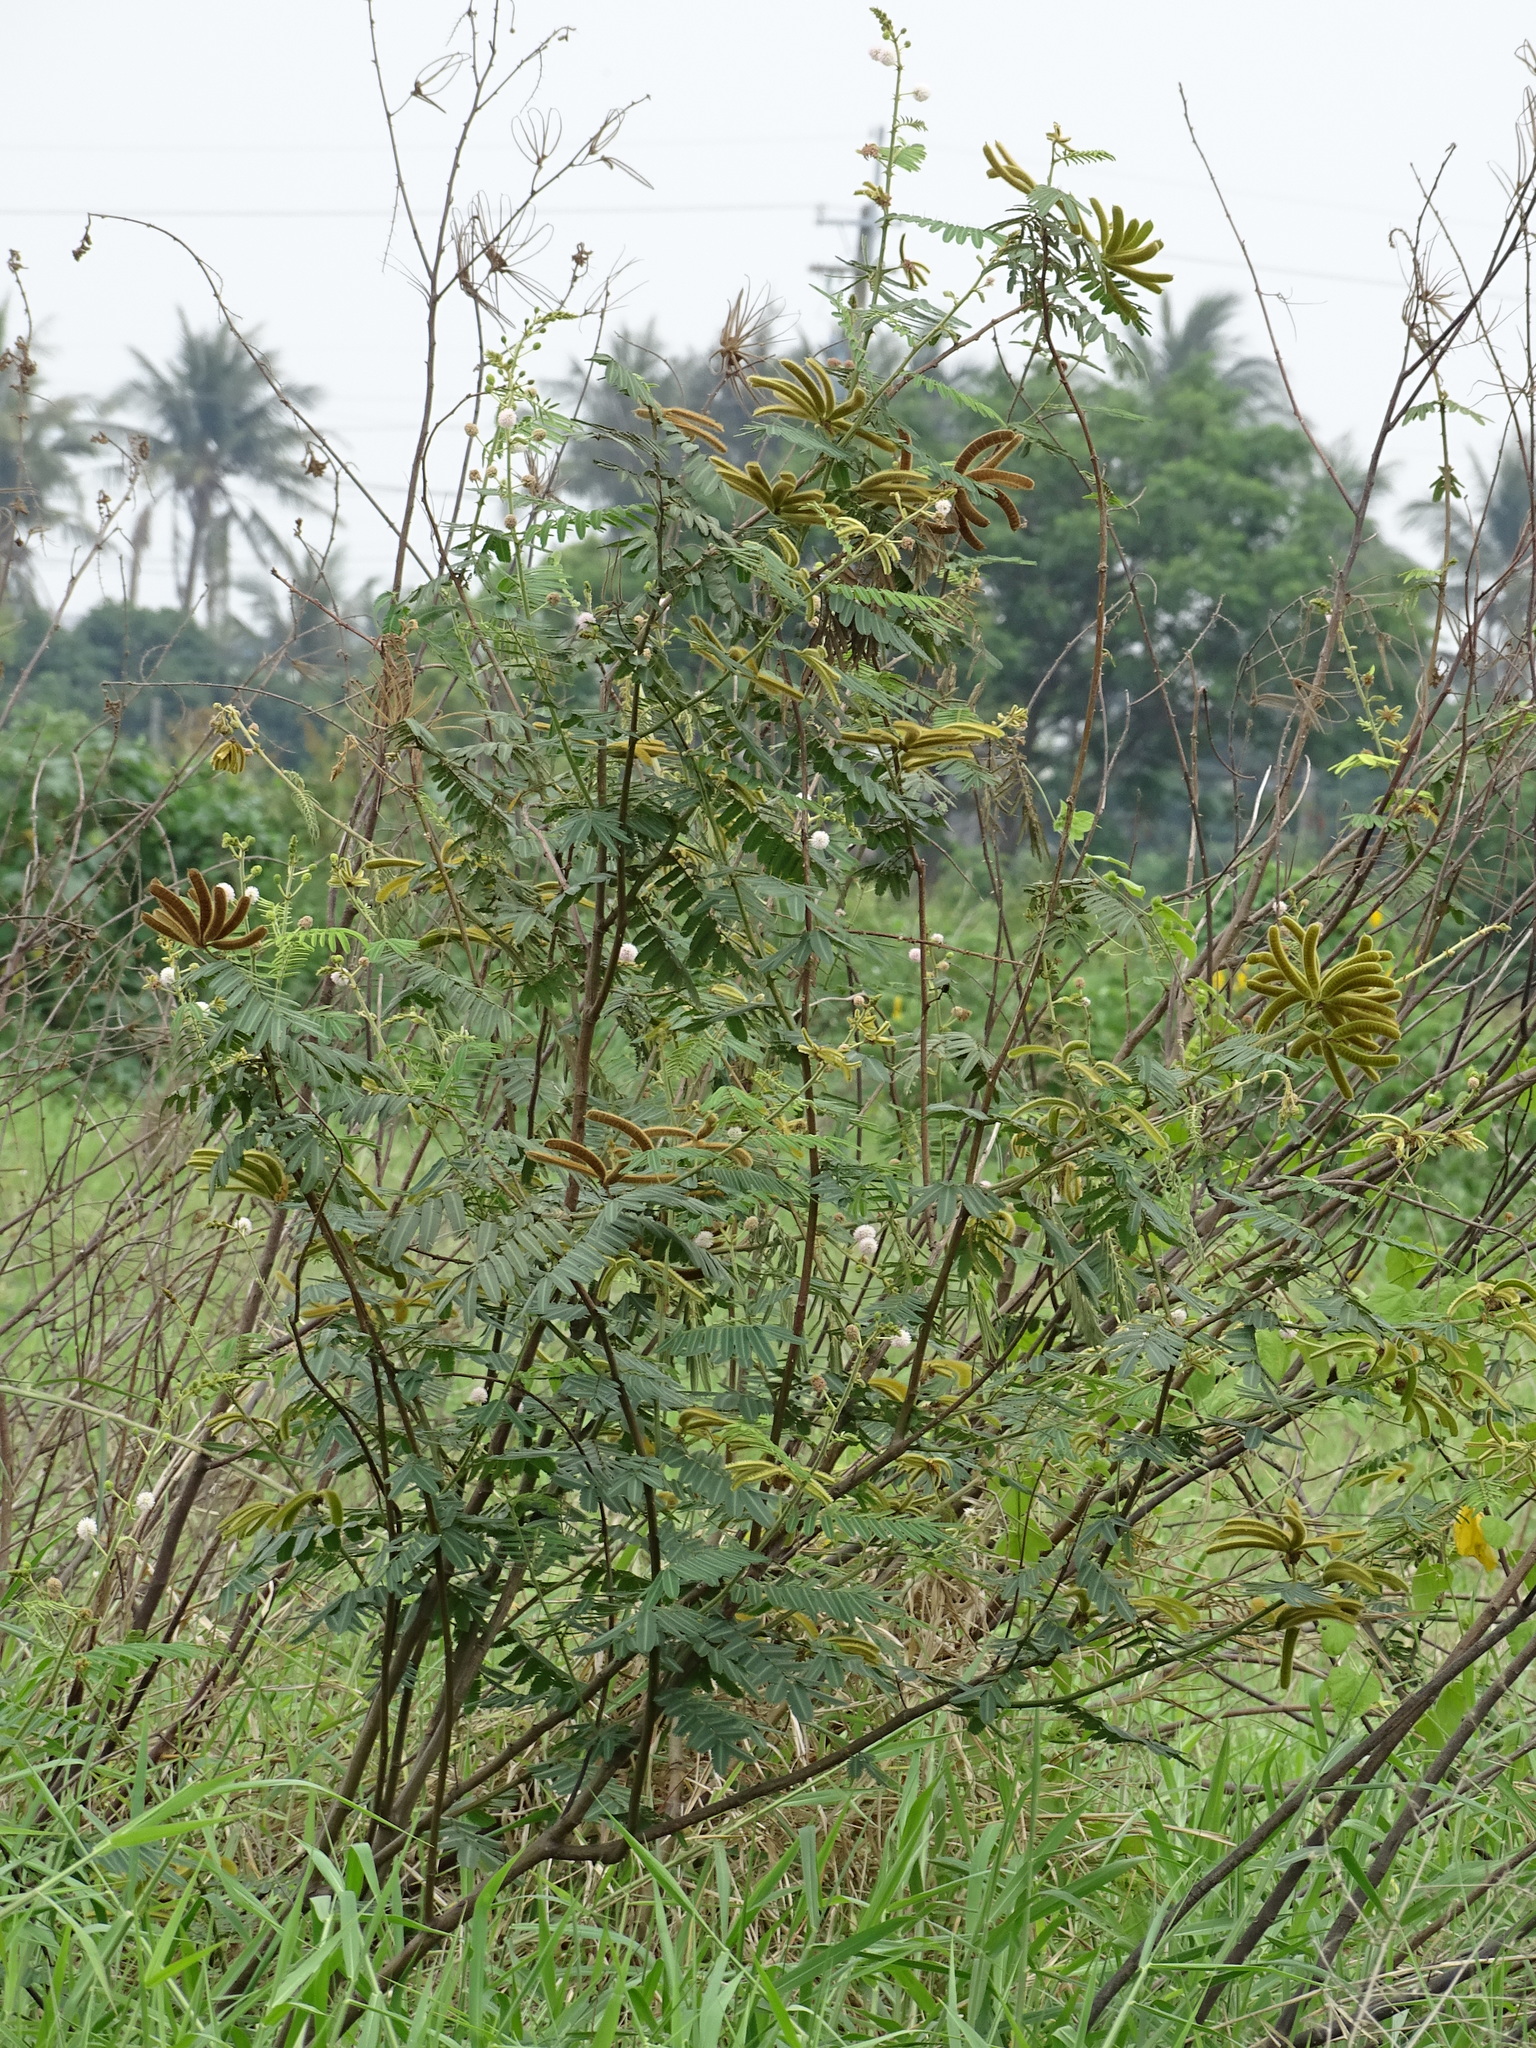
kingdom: Plantae
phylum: Tracheophyta
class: Magnoliopsida
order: Fabales
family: Fabaceae
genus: Mimosa
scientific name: Mimosa pigra
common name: Black mimosa
